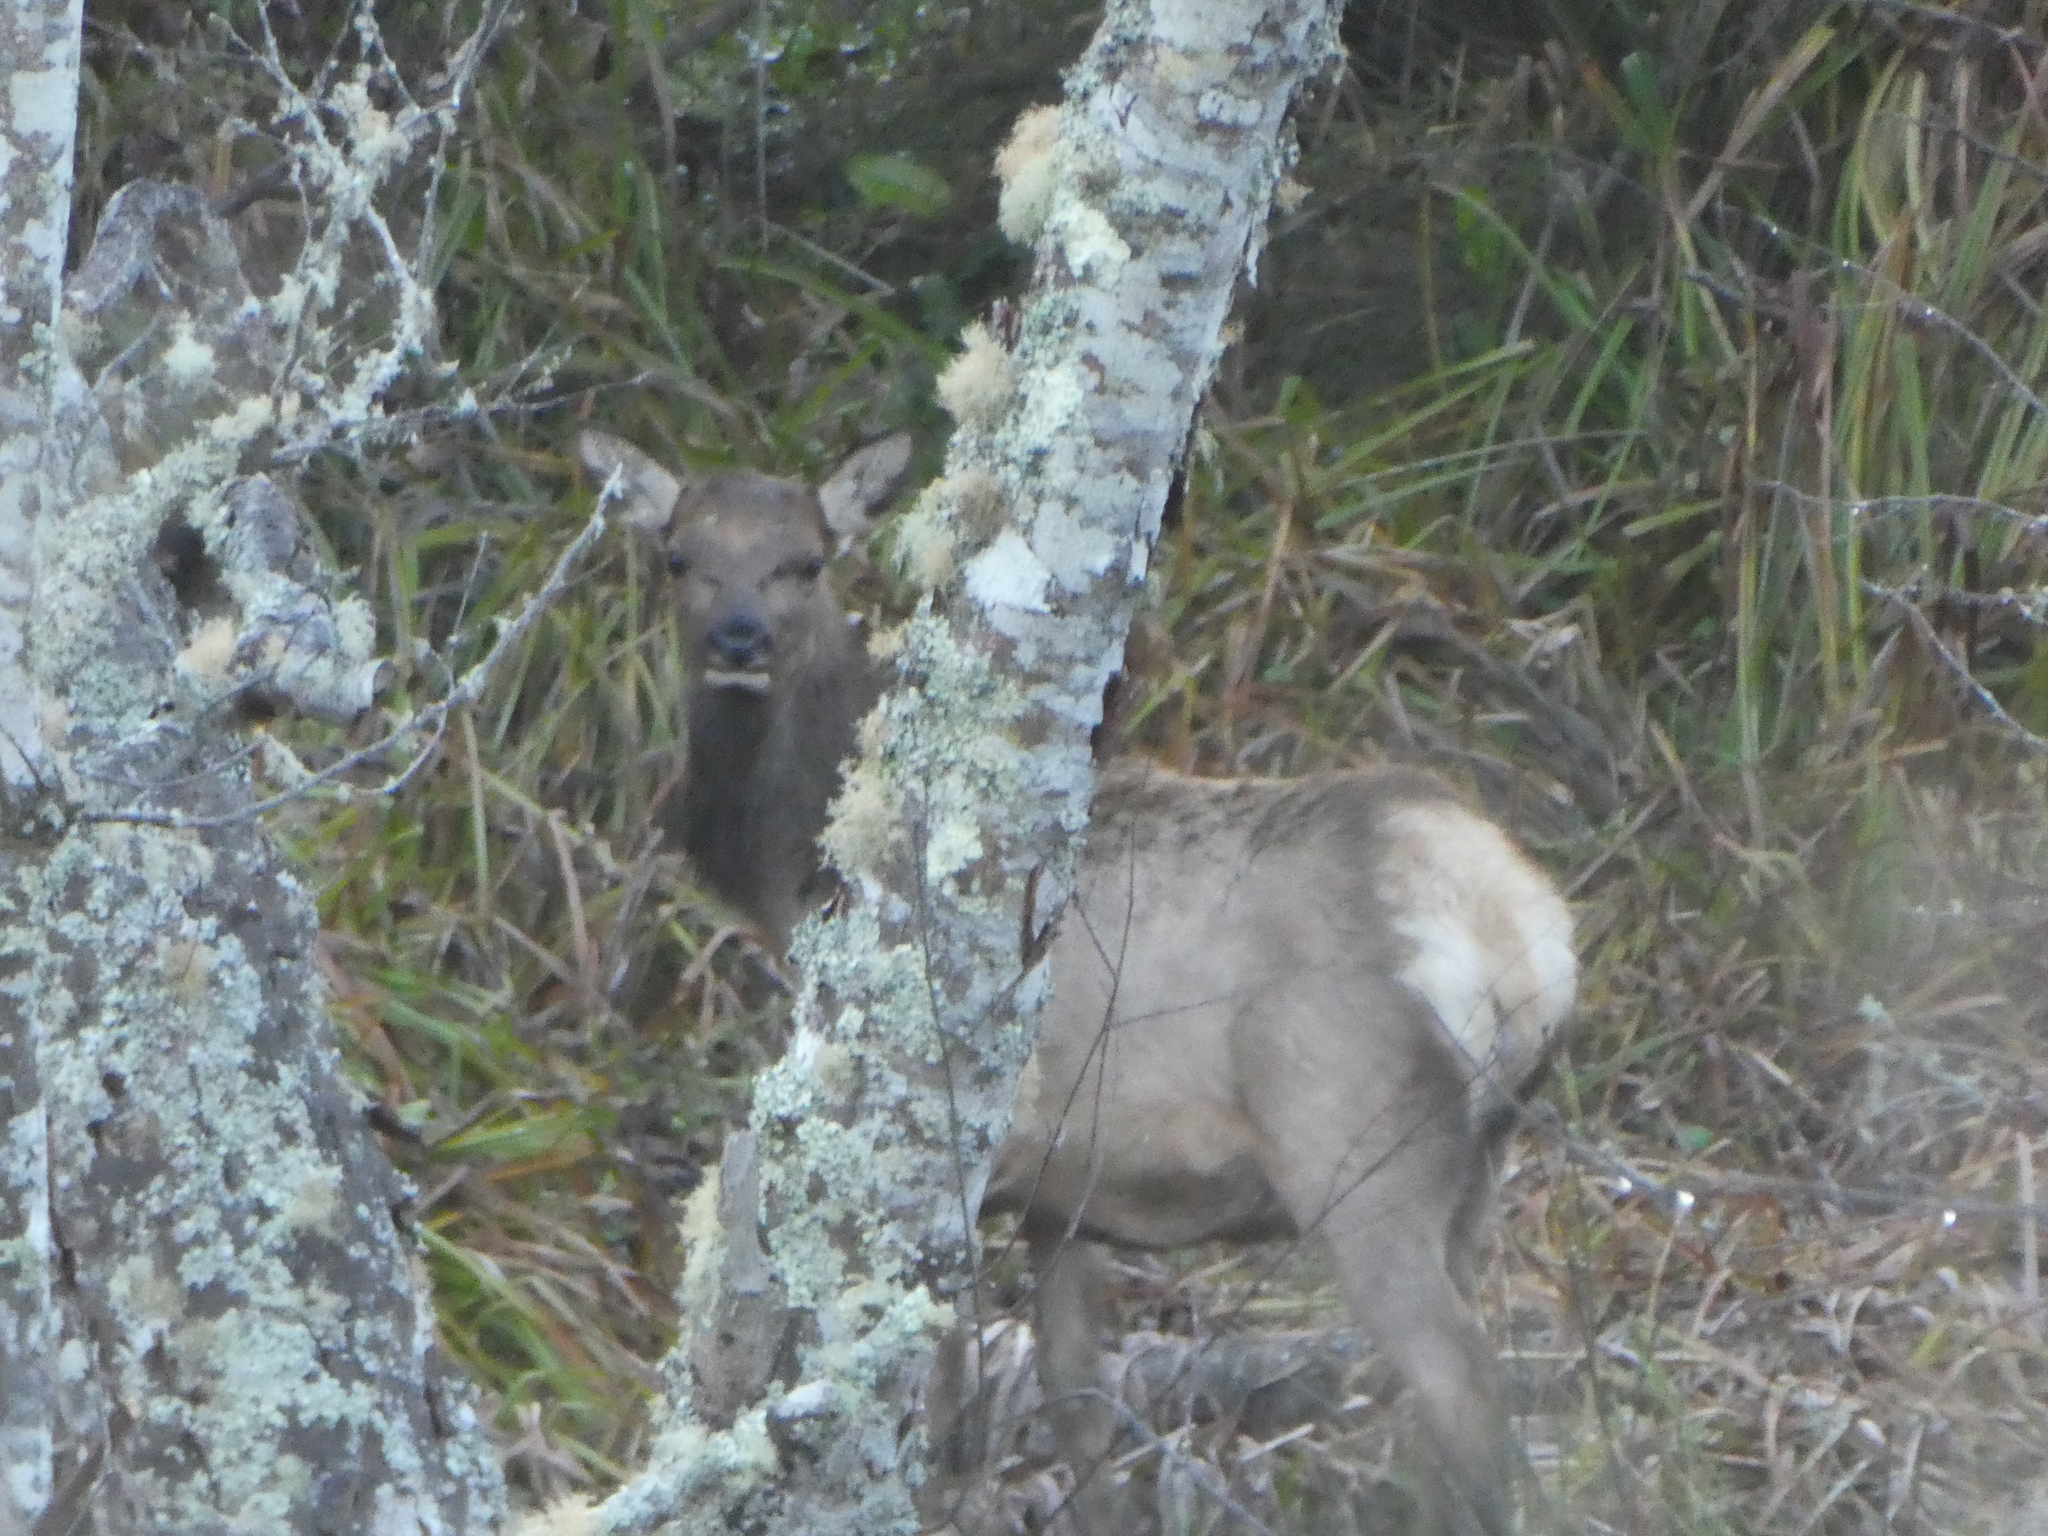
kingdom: Animalia
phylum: Chordata
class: Mammalia
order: Artiodactyla
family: Cervidae
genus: Cervus
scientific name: Cervus elaphus
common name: Red deer
